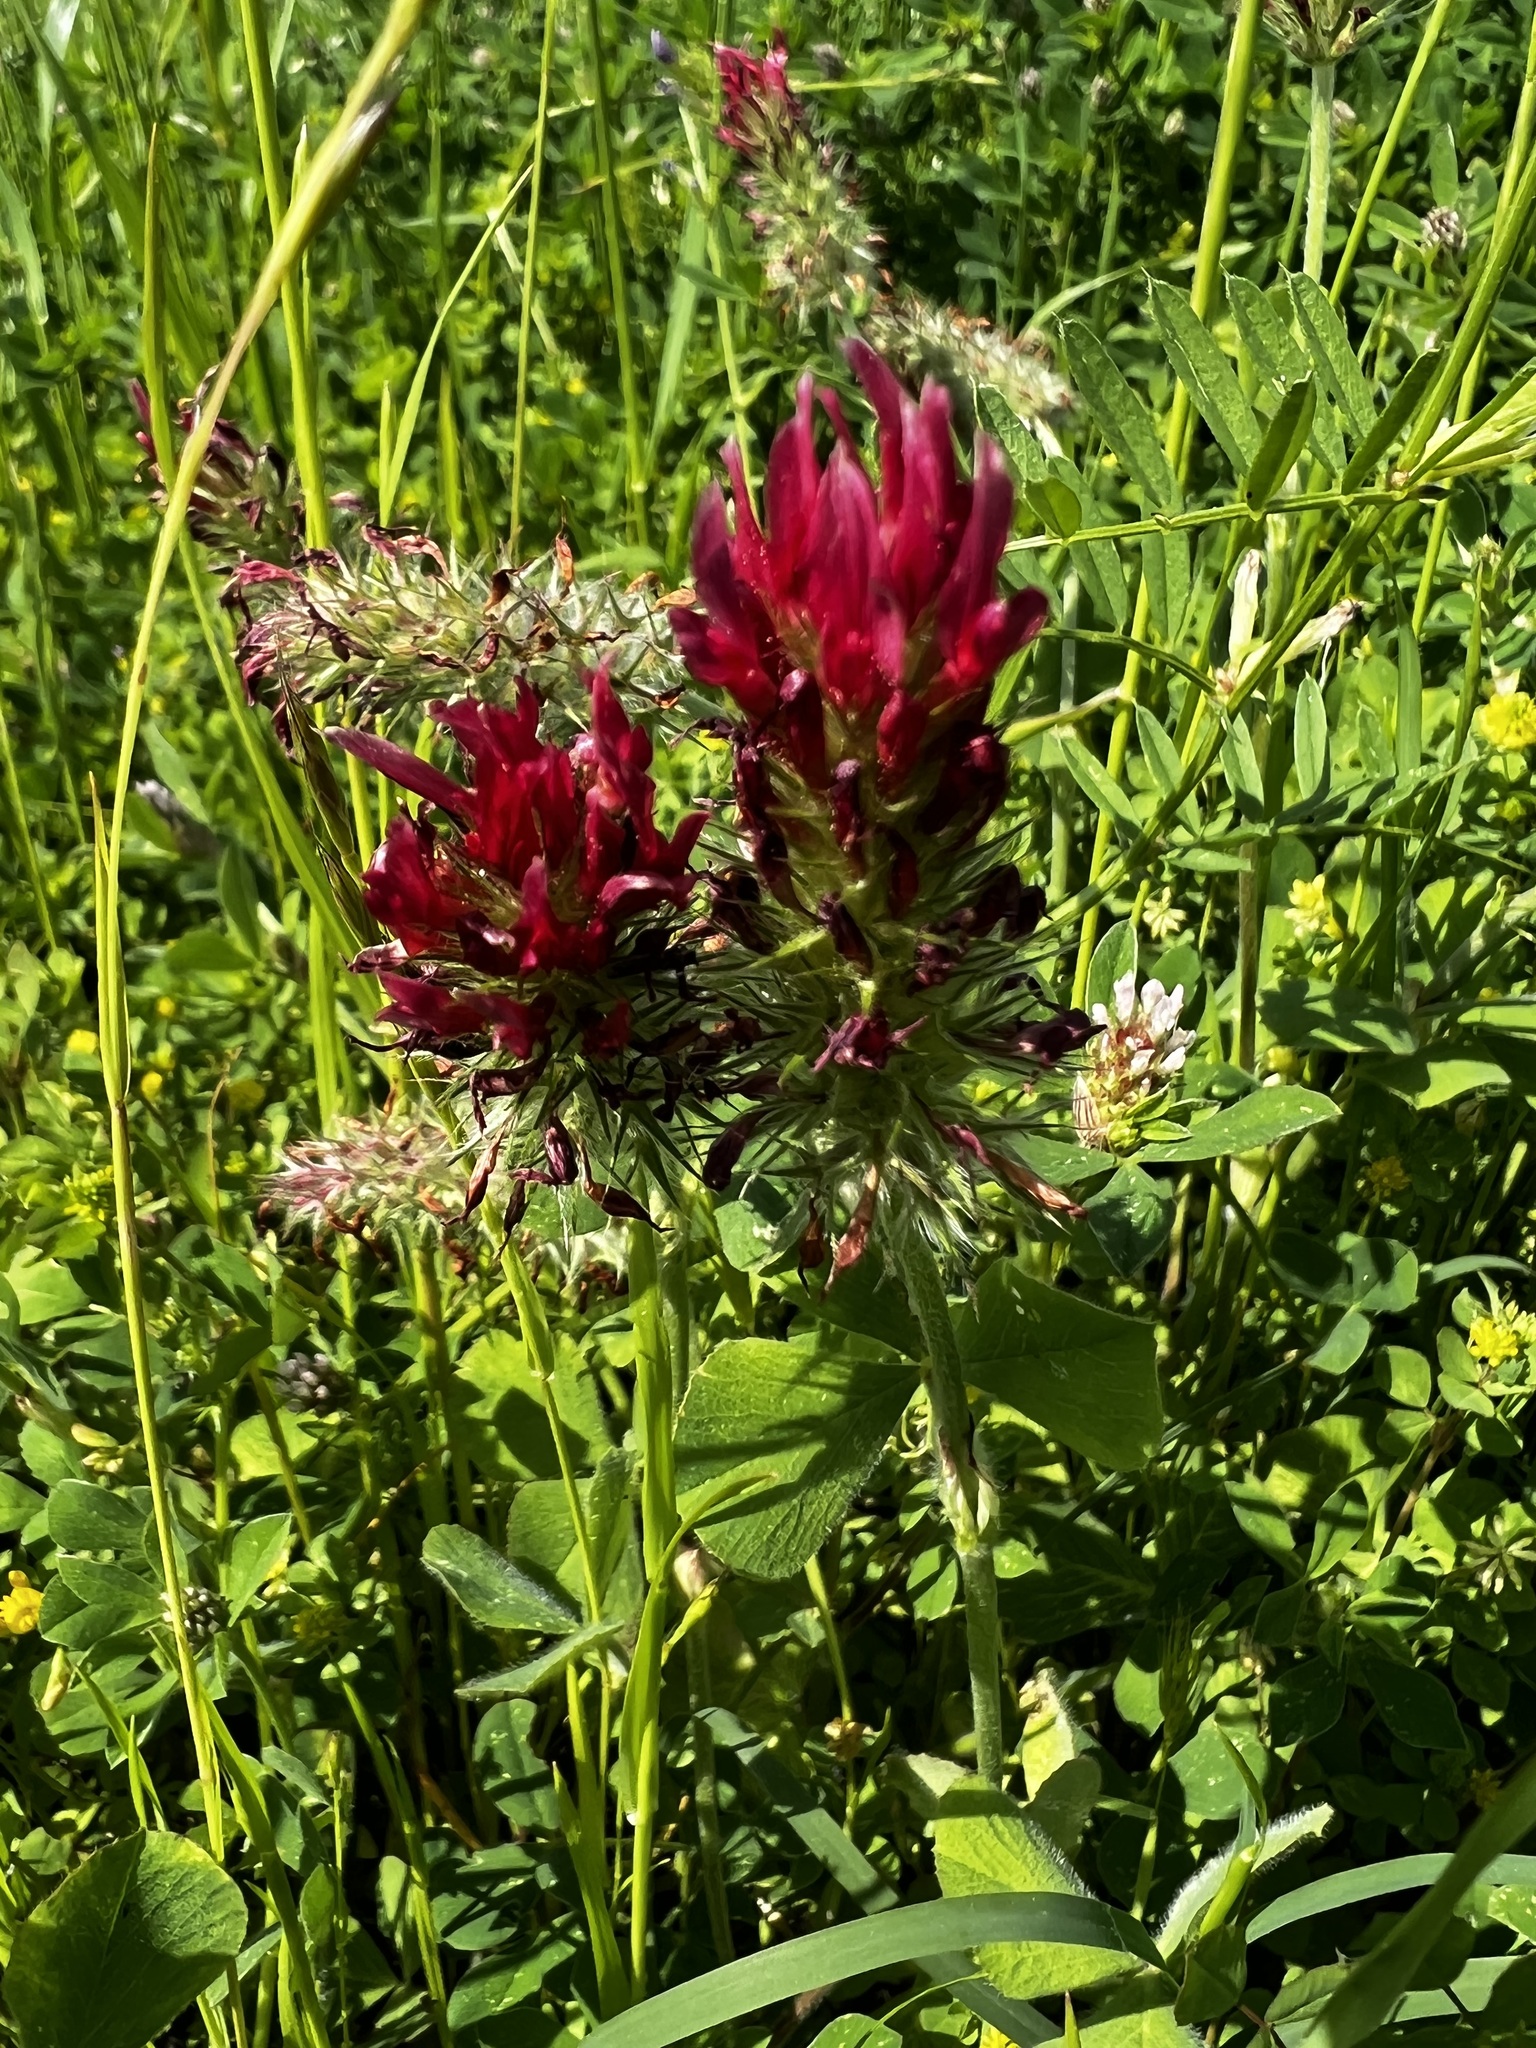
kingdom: Plantae
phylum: Tracheophyta
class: Magnoliopsida
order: Fabales
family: Fabaceae
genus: Trifolium
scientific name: Trifolium incarnatum
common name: Crimson clover
